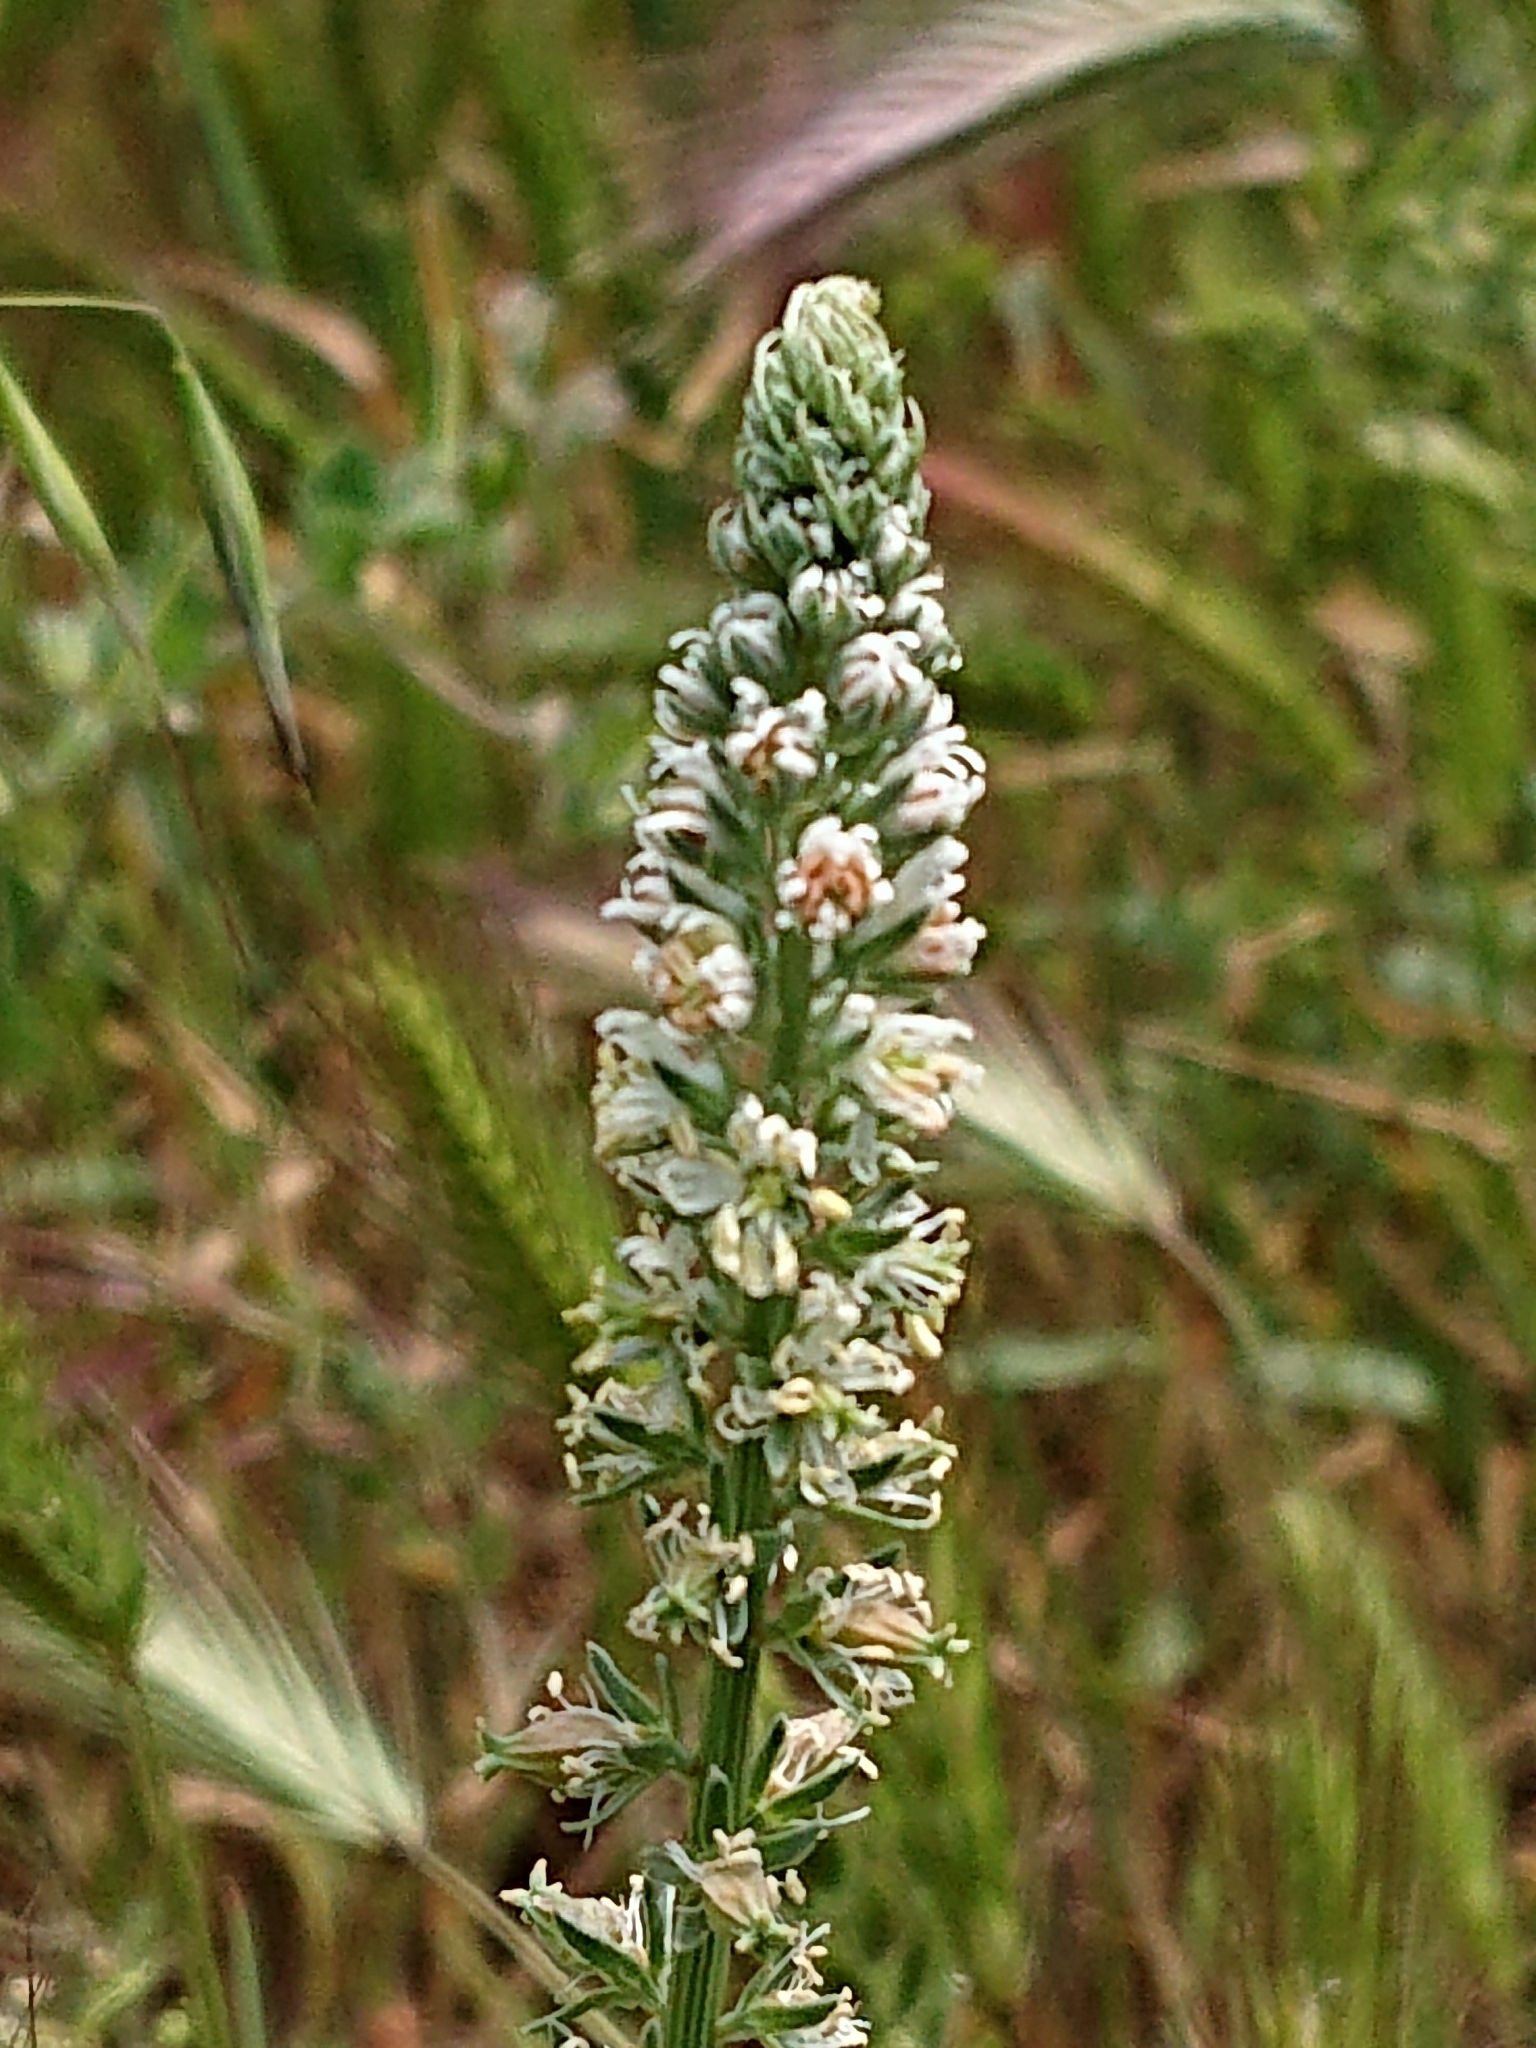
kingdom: Plantae
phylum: Tracheophyta
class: Magnoliopsida
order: Brassicales
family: Resedaceae
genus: Reseda
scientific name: Reseda alba
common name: White mignonette
